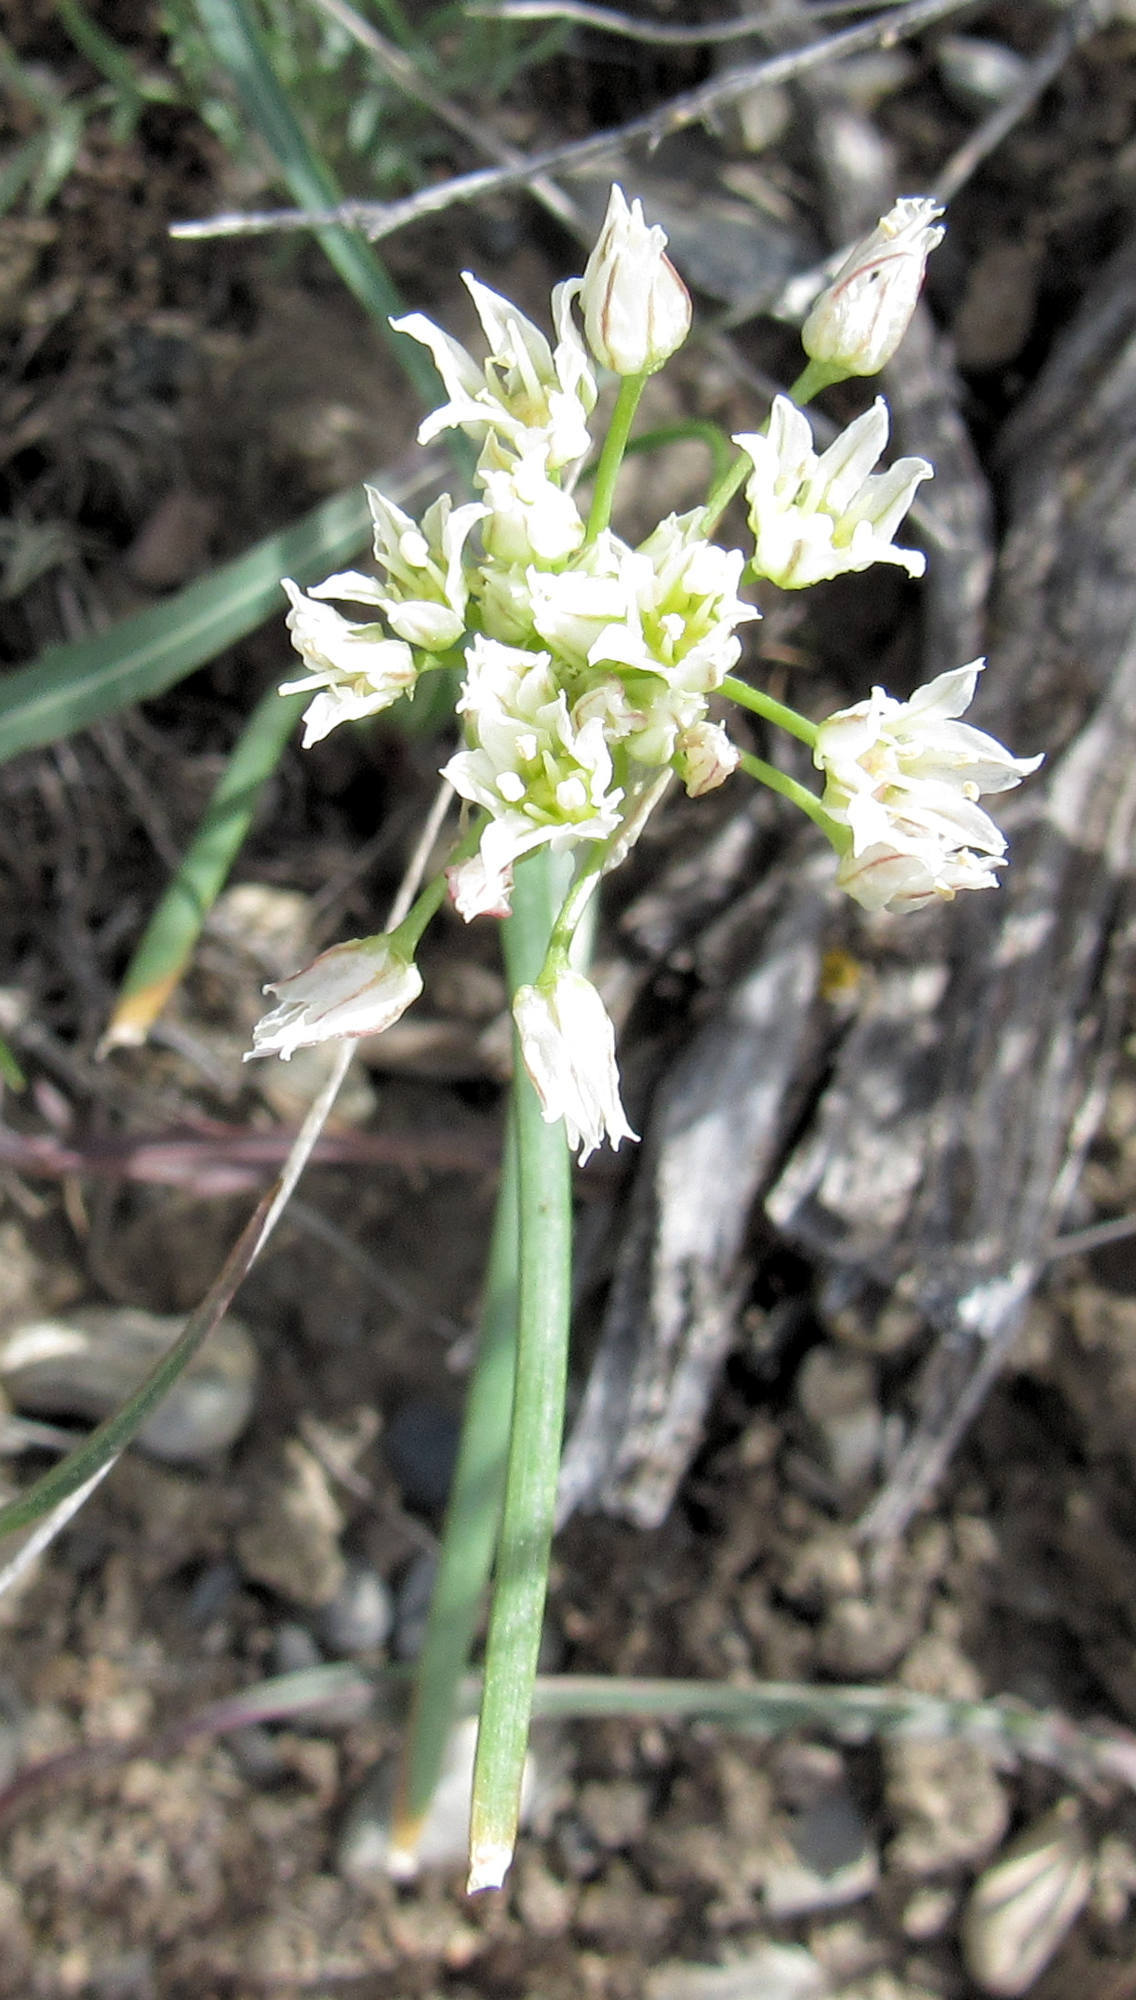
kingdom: Plantae
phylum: Tracheophyta
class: Liliopsida
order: Asparagales
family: Amaryllidaceae
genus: Allium
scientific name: Allium textile
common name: Prairie onion
